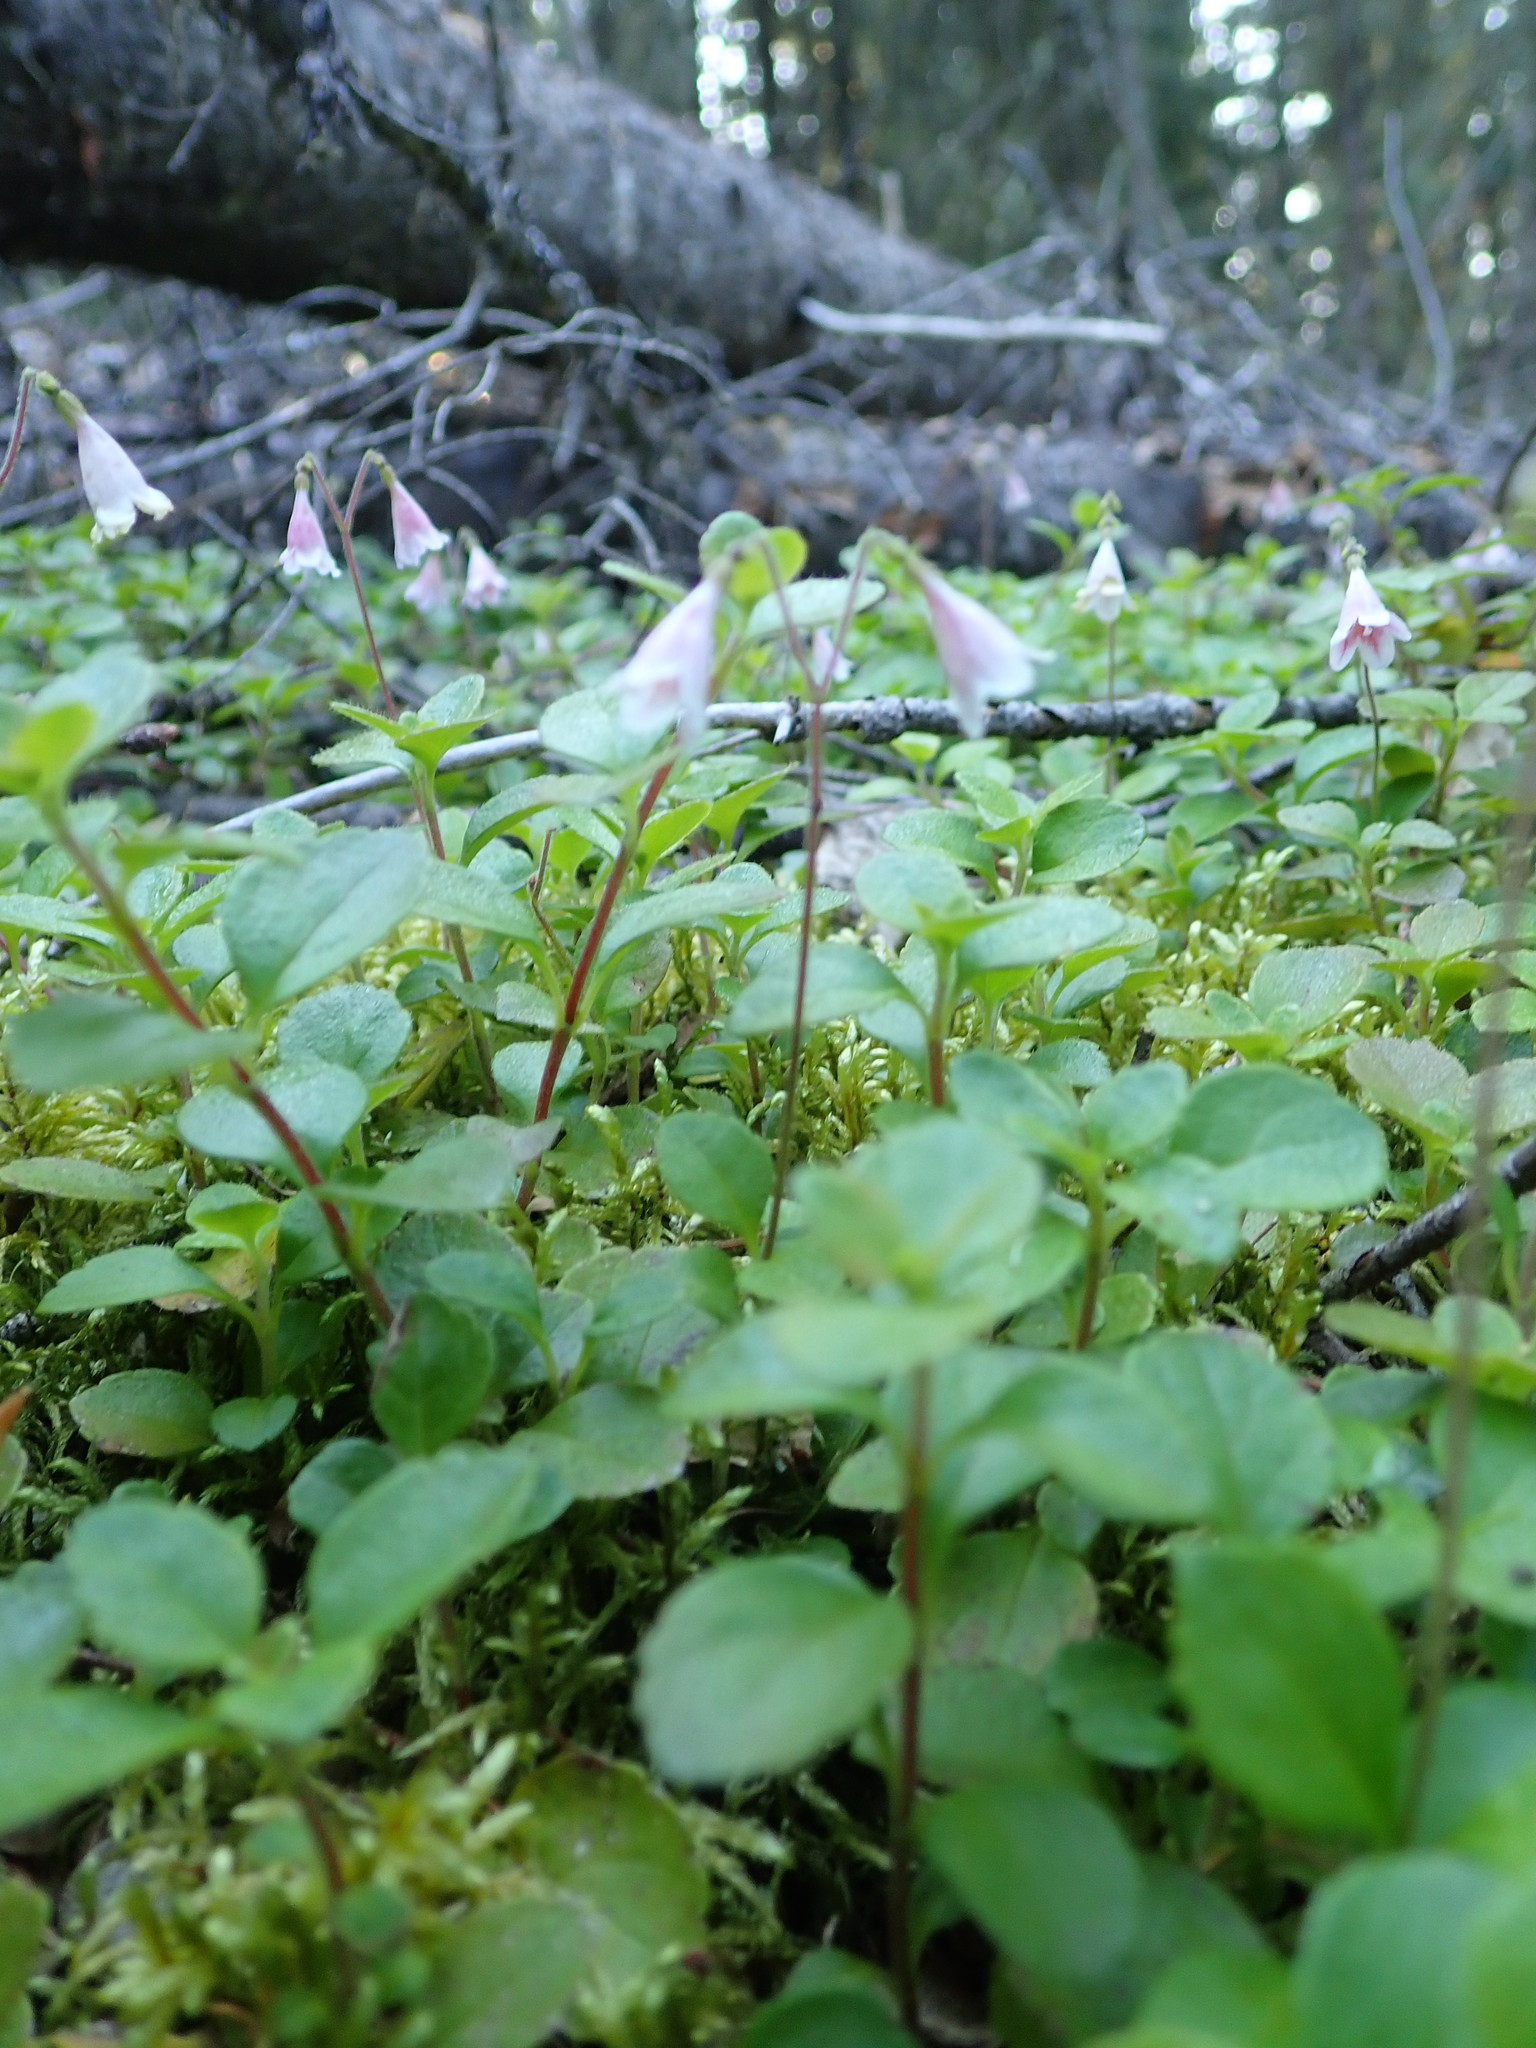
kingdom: Plantae
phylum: Tracheophyta
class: Magnoliopsida
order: Dipsacales
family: Caprifoliaceae
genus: Linnaea
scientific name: Linnaea borealis
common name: Twinflower
